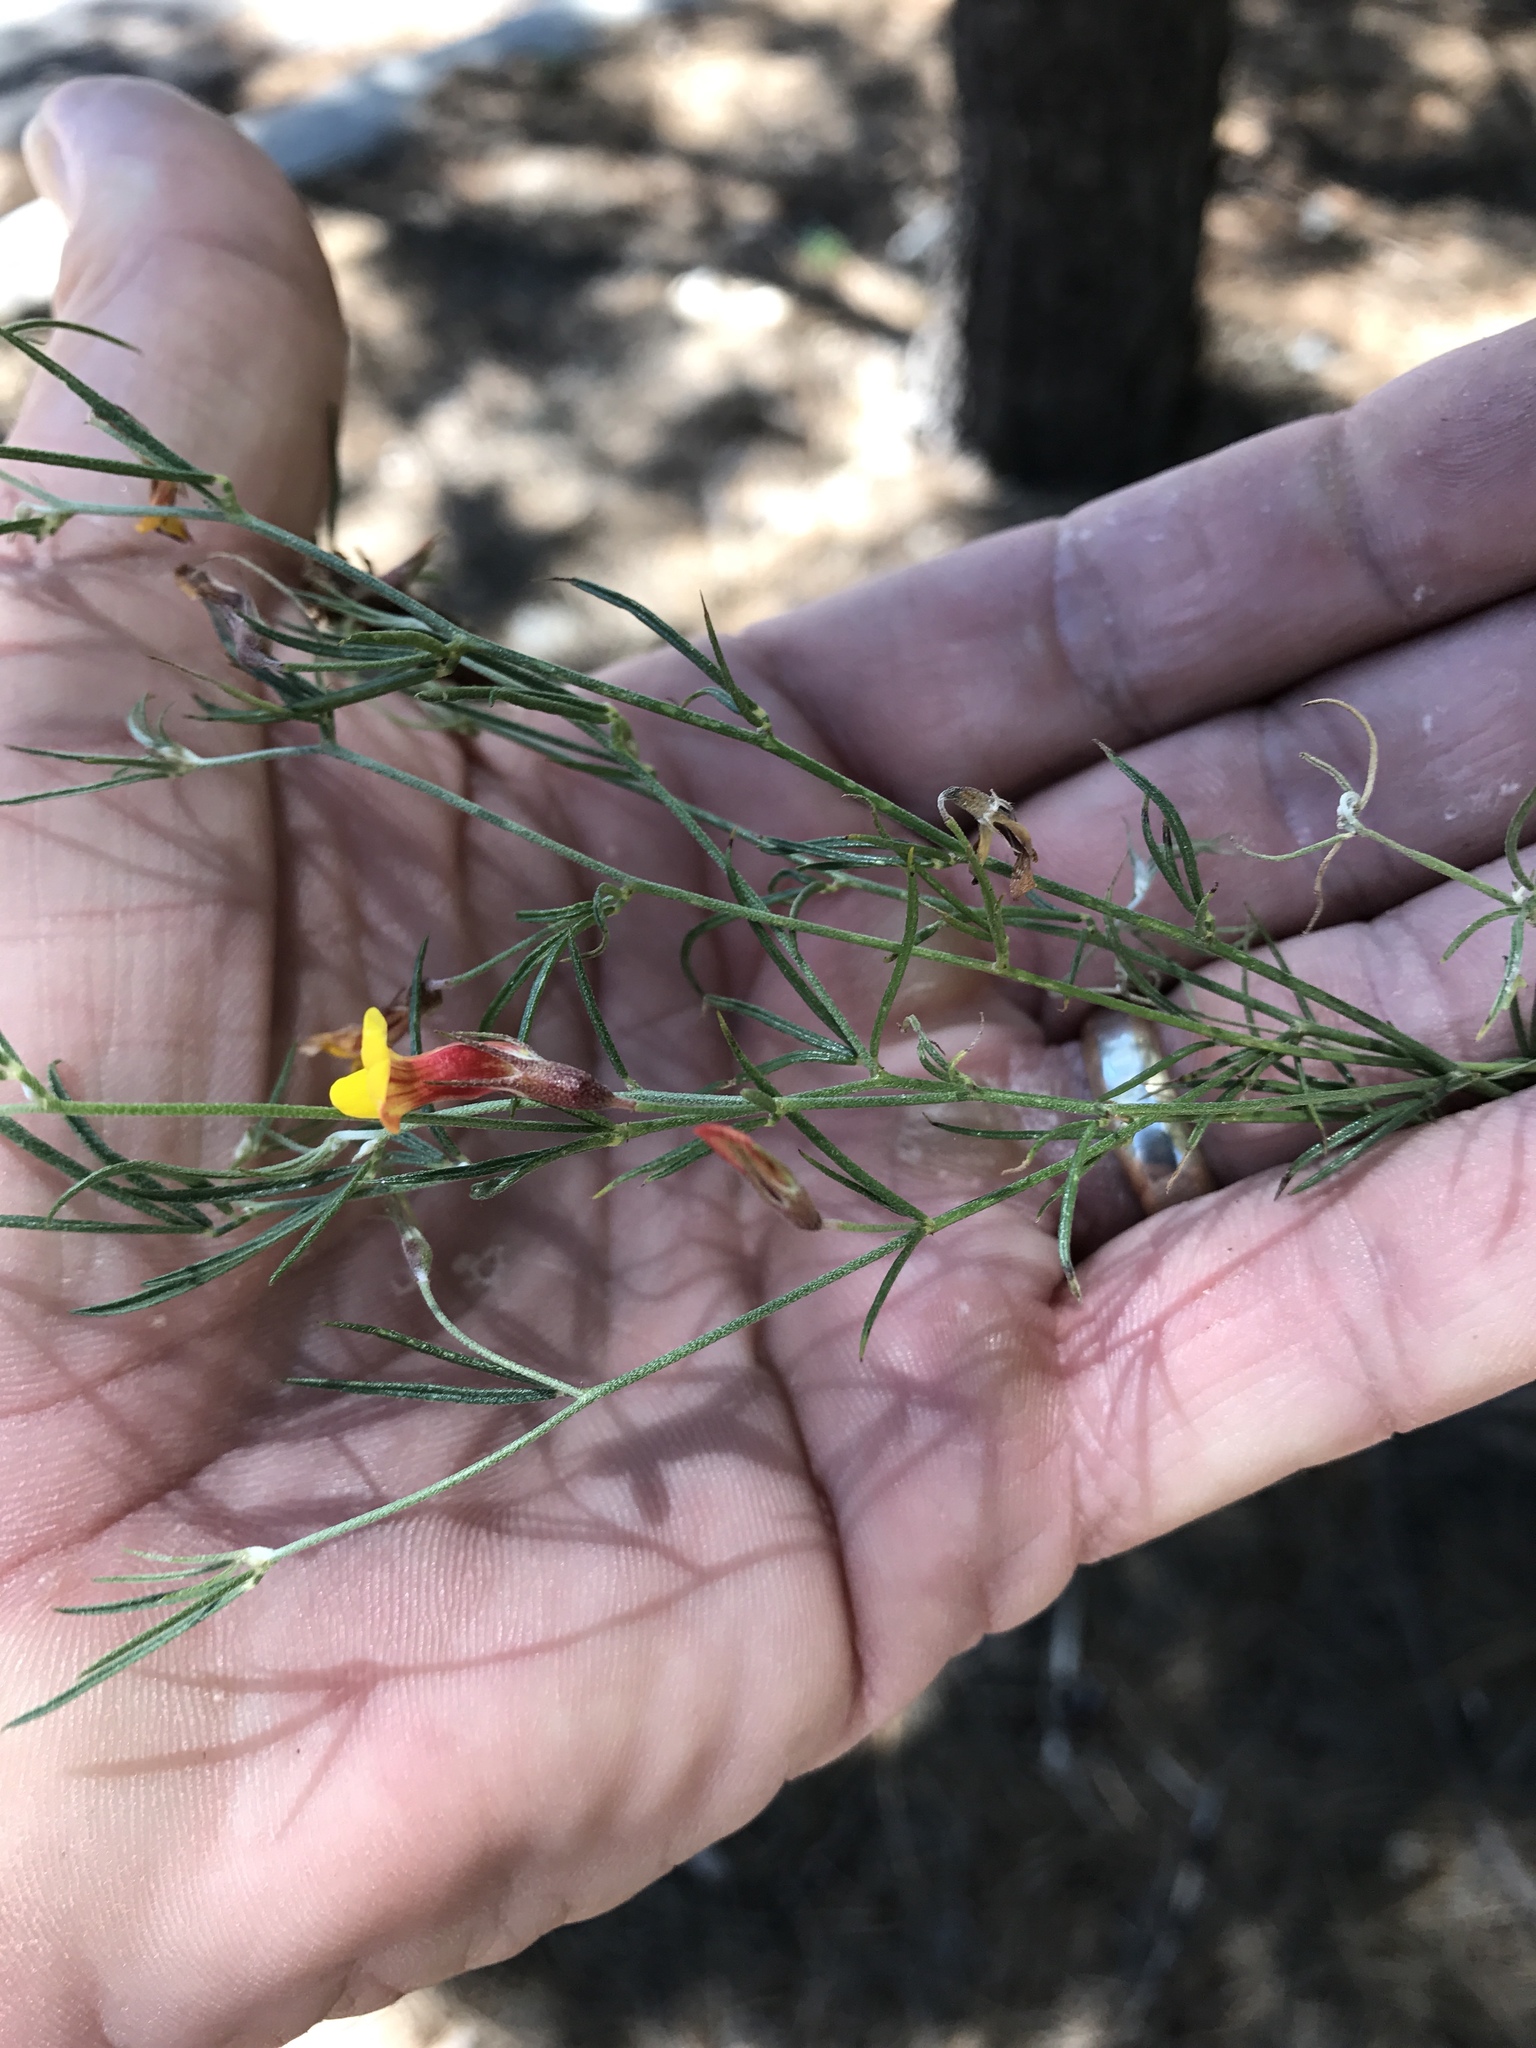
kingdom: Plantae
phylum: Tracheophyta
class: Magnoliopsida
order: Fabales
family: Fabaceae
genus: Acmispon
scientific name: Acmispon oroboides
